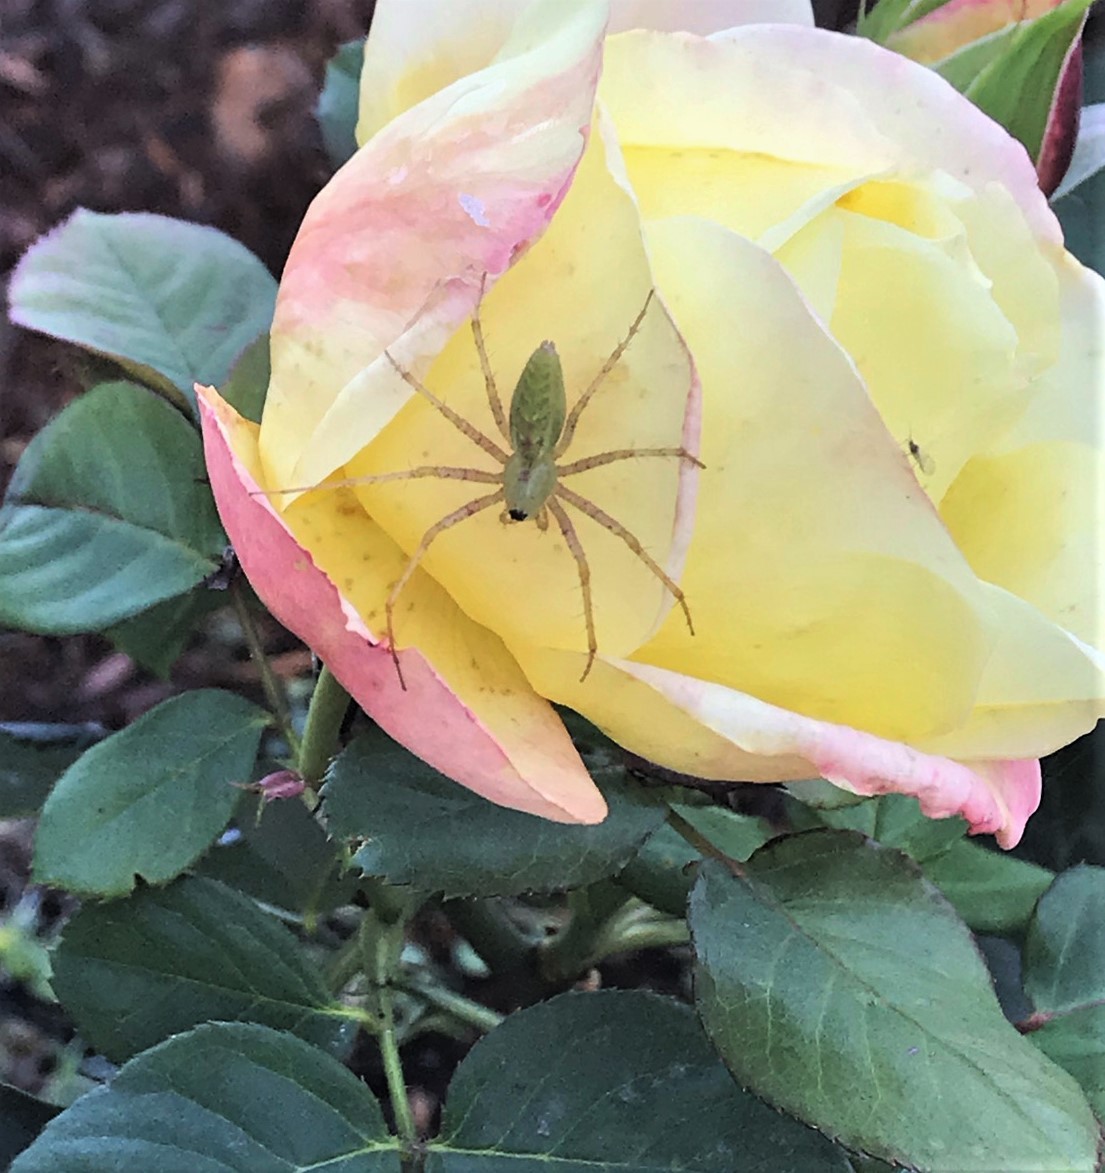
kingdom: Animalia
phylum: Arthropoda
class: Arachnida
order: Araneae
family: Oxyopidae
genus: Peucetia
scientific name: Peucetia viridans
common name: Lynx spiders
